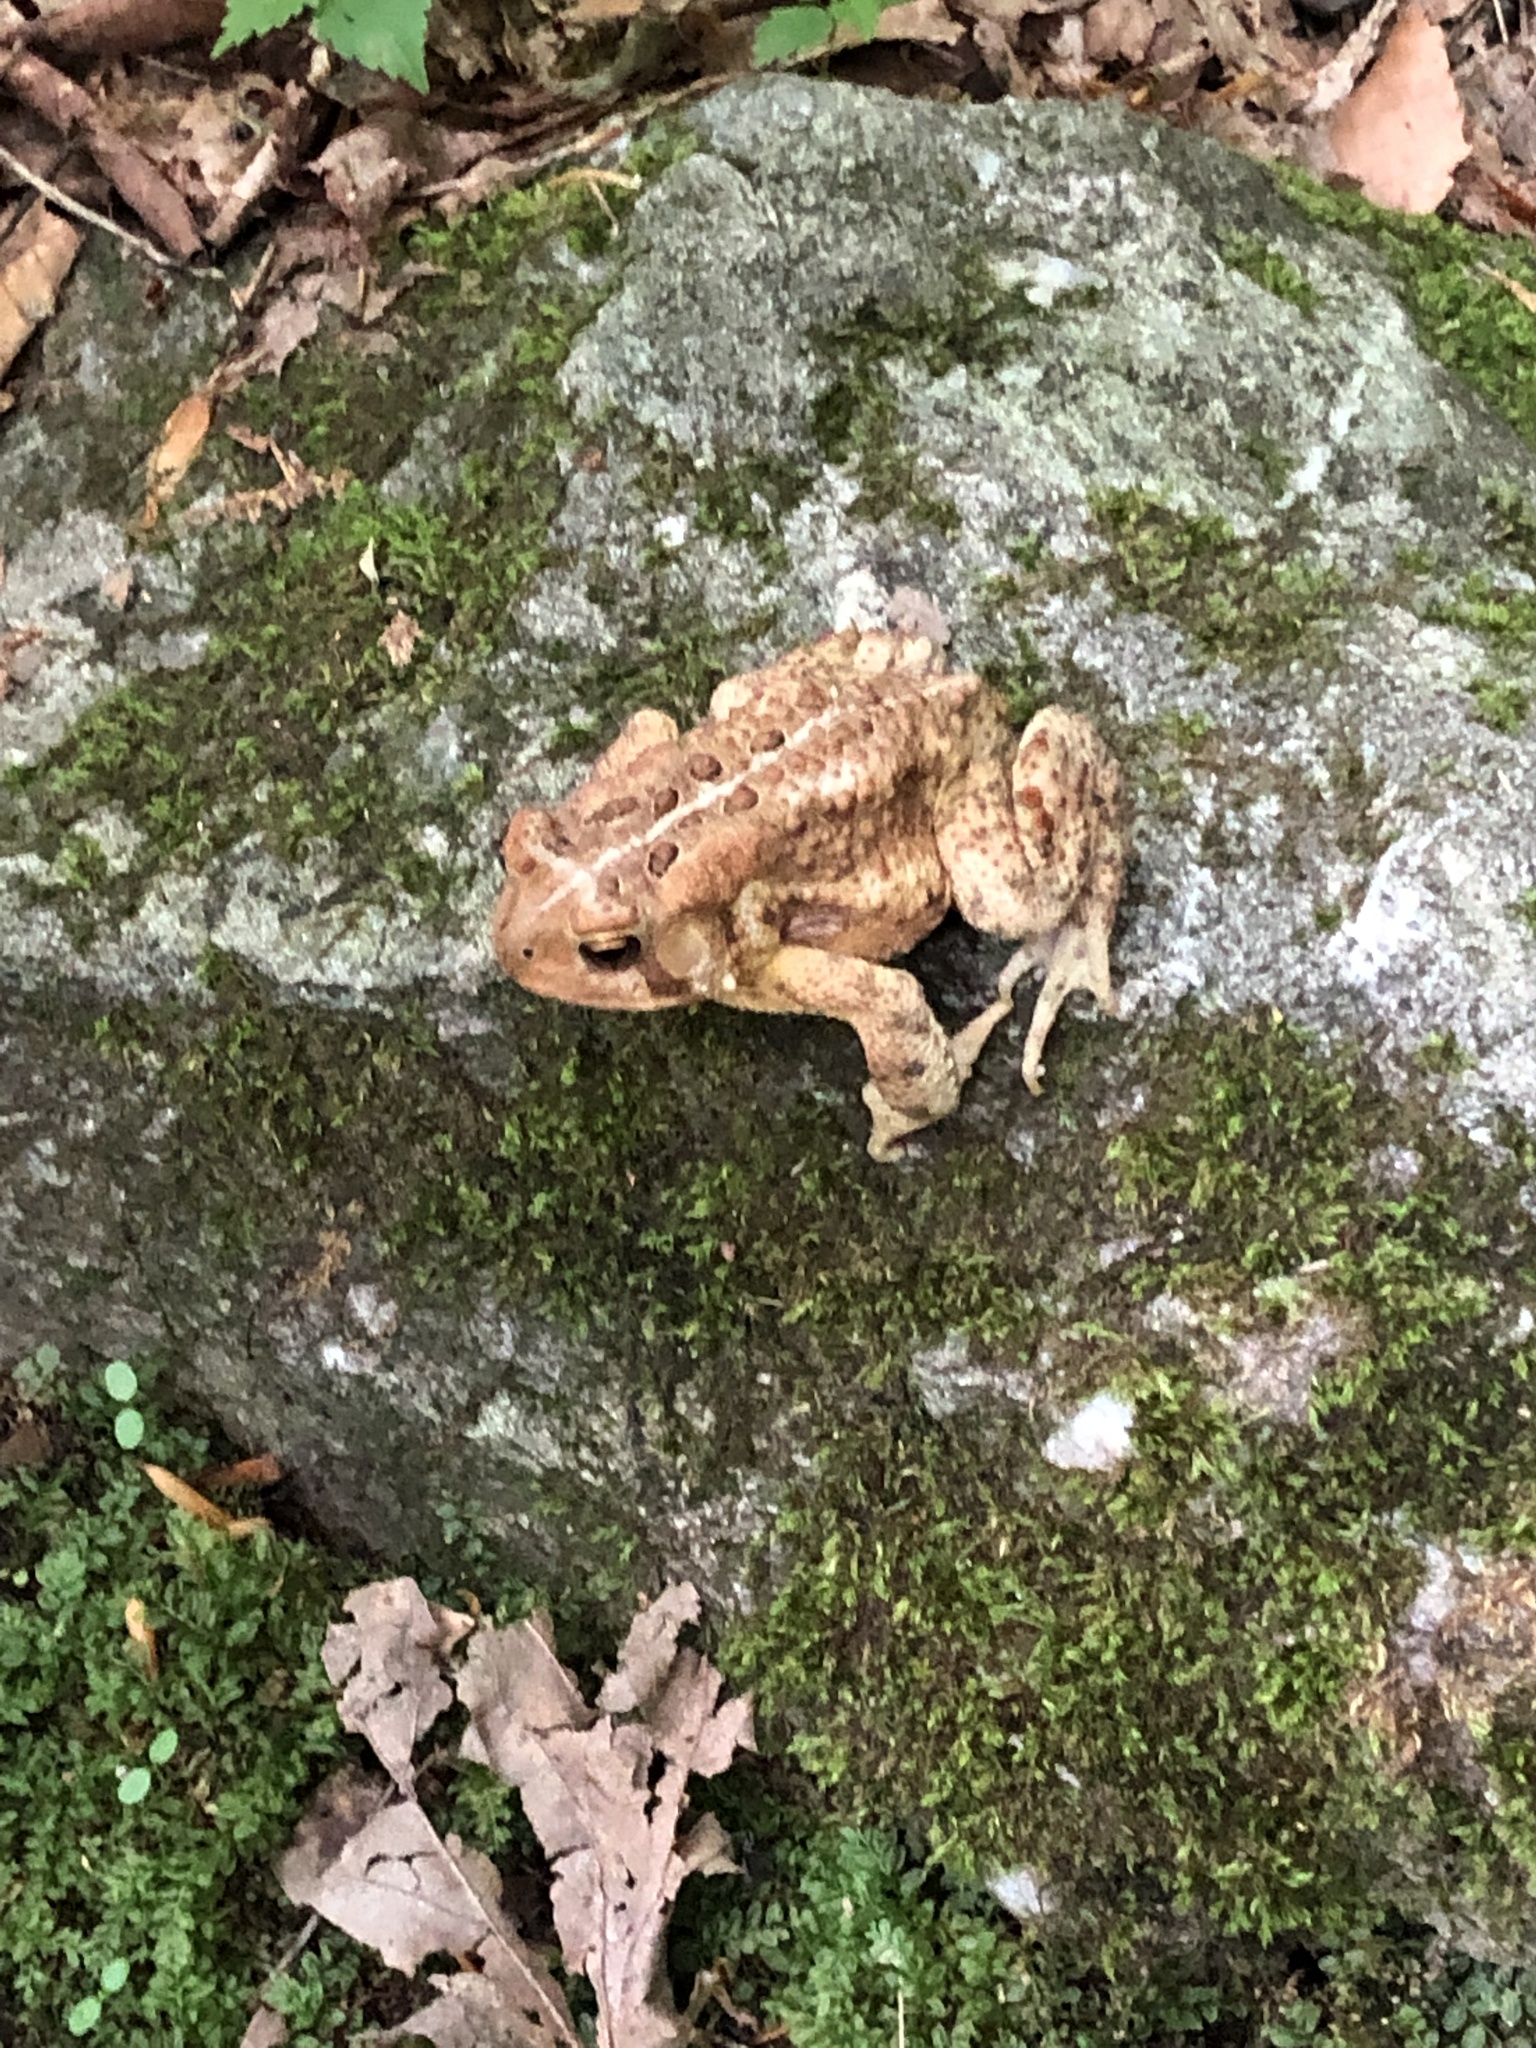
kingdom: Animalia
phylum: Chordata
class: Amphibia
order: Anura
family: Bufonidae
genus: Anaxyrus
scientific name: Anaxyrus americanus
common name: American toad
